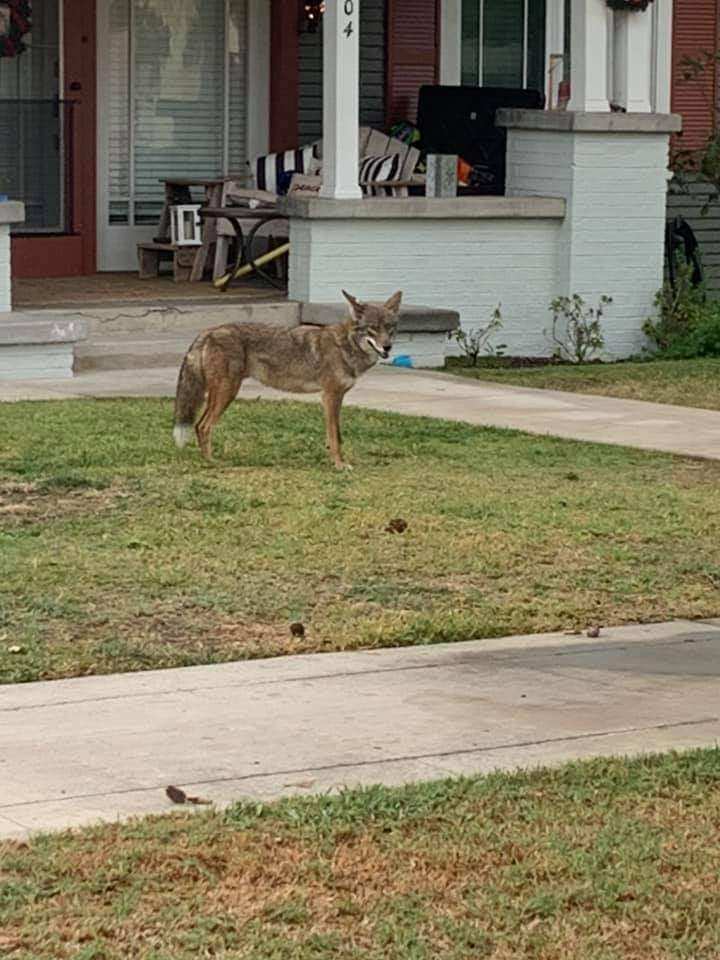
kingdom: Animalia
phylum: Chordata
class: Mammalia
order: Carnivora
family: Canidae
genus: Canis
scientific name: Canis latrans
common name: Coyote
